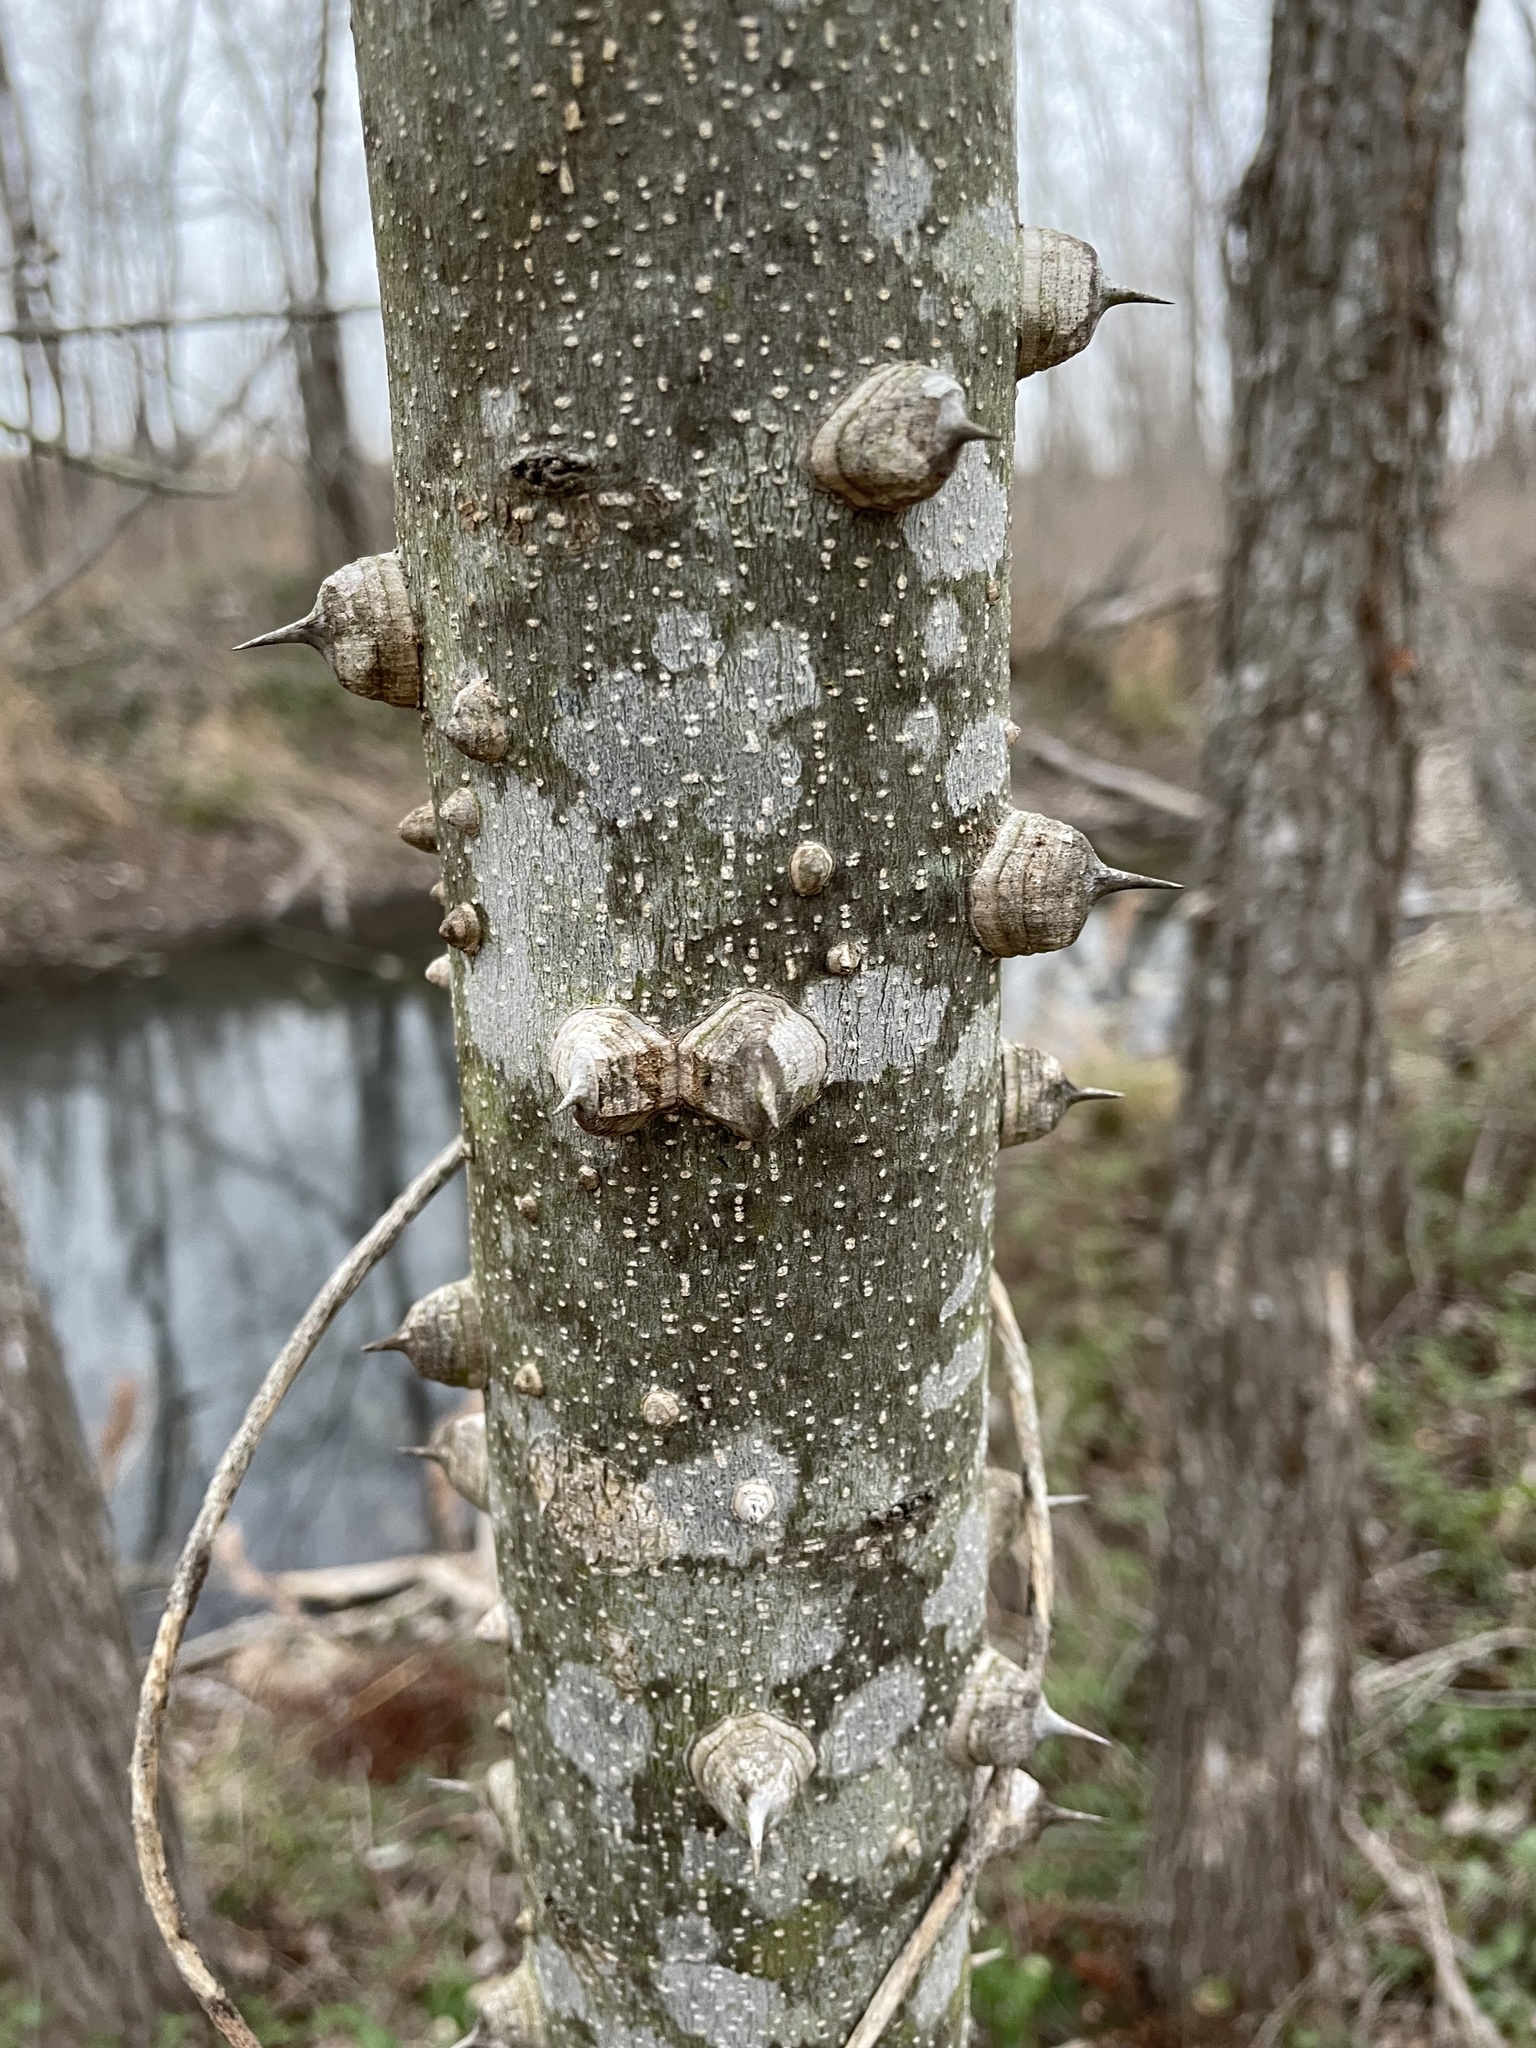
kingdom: Plantae
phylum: Tracheophyta
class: Magnoliopsida
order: Sapindales
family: Rutaceae
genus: Zanthoxylum
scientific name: Zanthoxylum clava-herculis
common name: Hercules'-club
